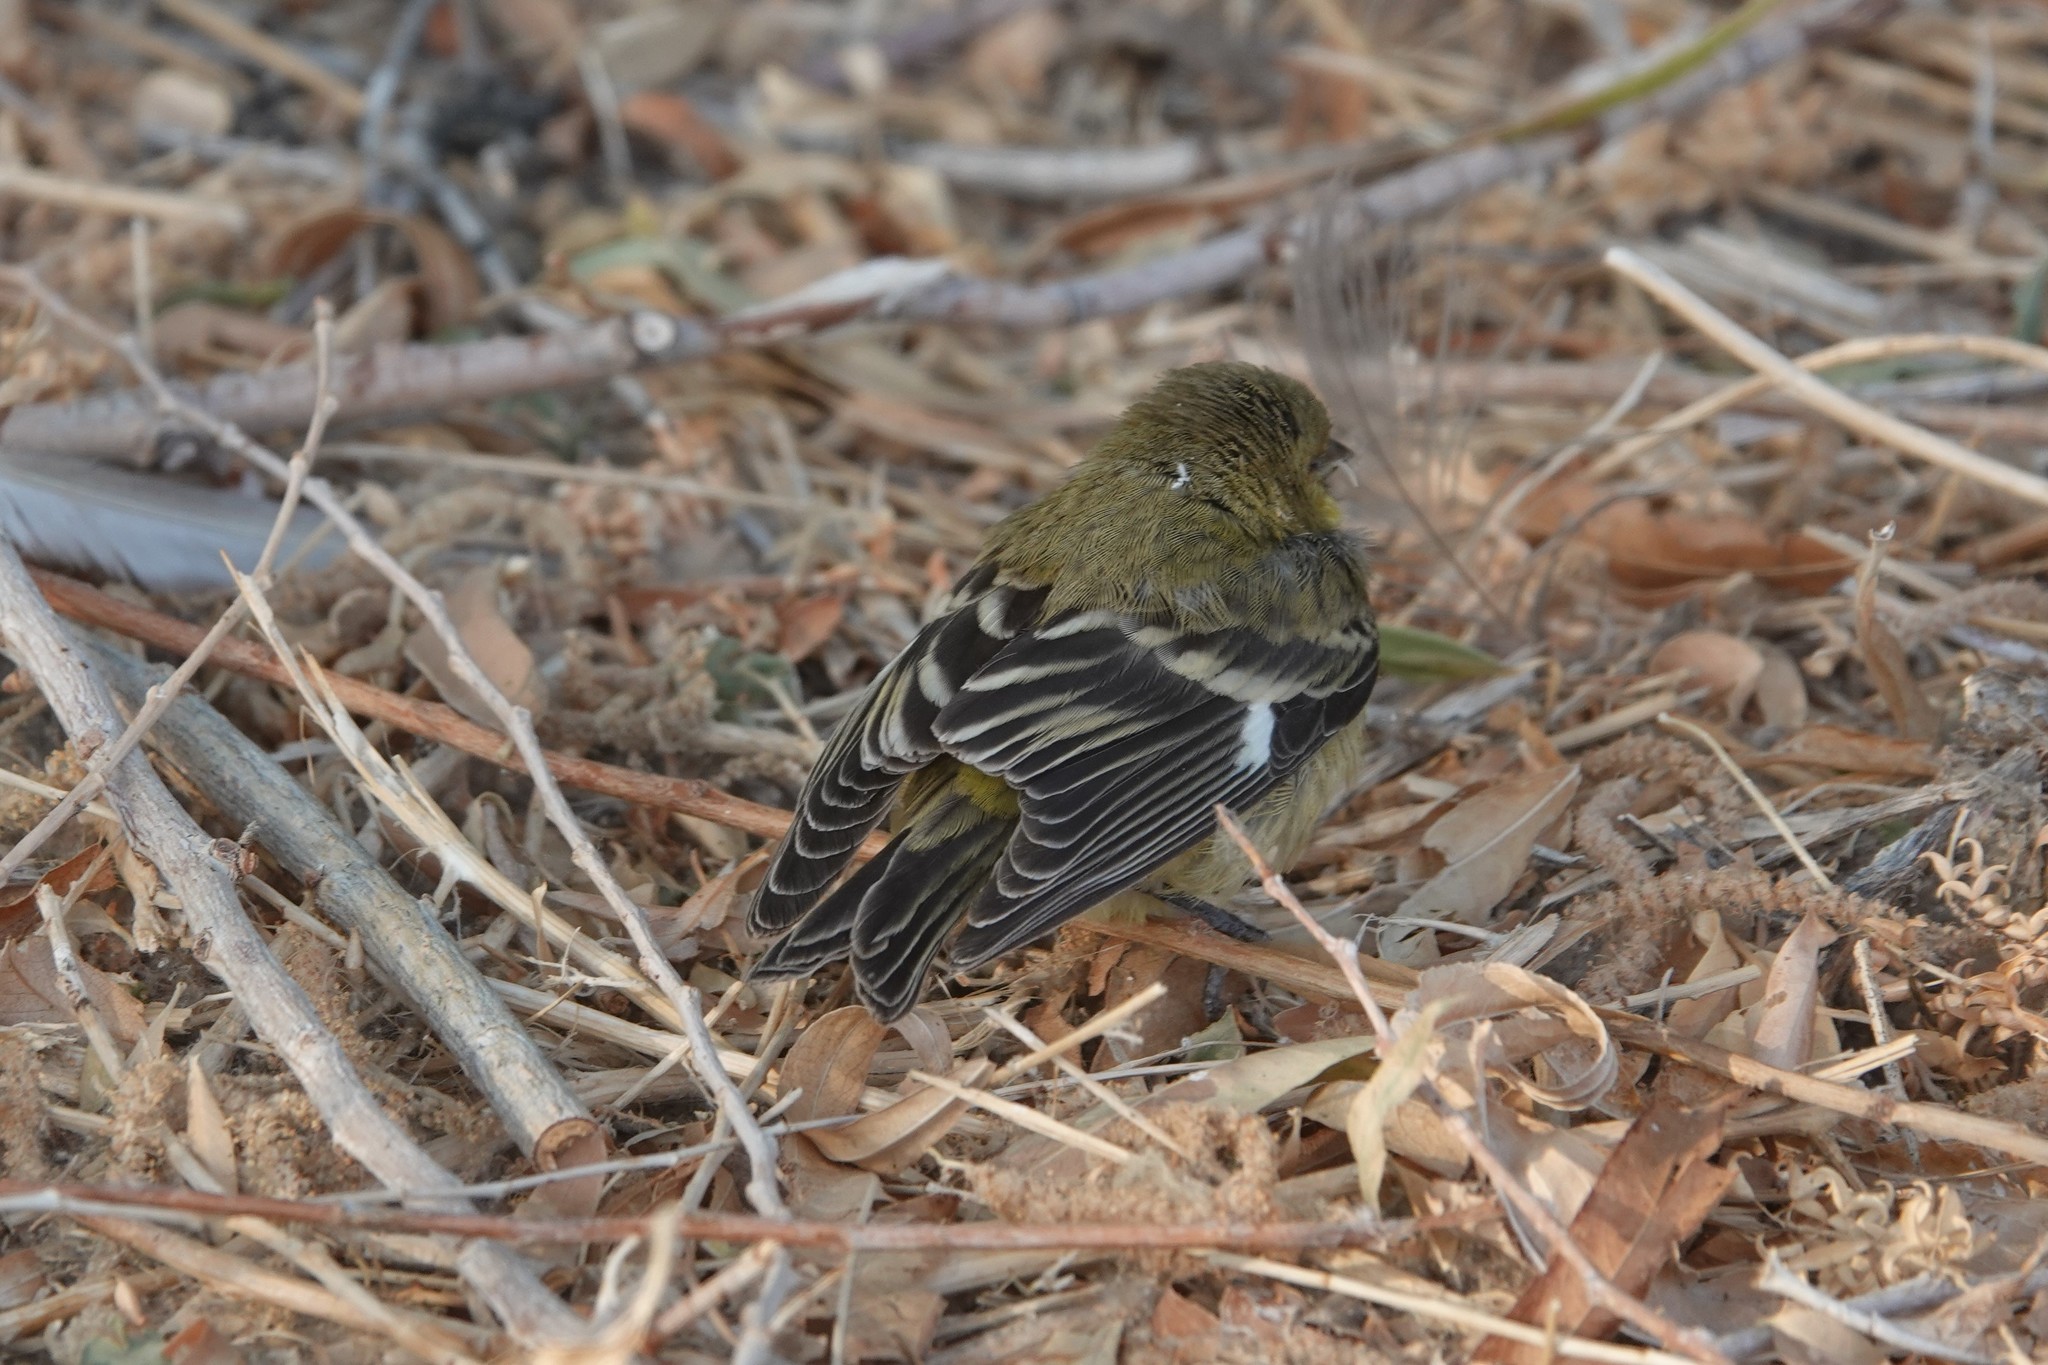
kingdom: Animalia
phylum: Chordata
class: Aves
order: Passeriformes
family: Fringillidae
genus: Spinus
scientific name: Spinus psaltria
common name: Lesser goldfinch
